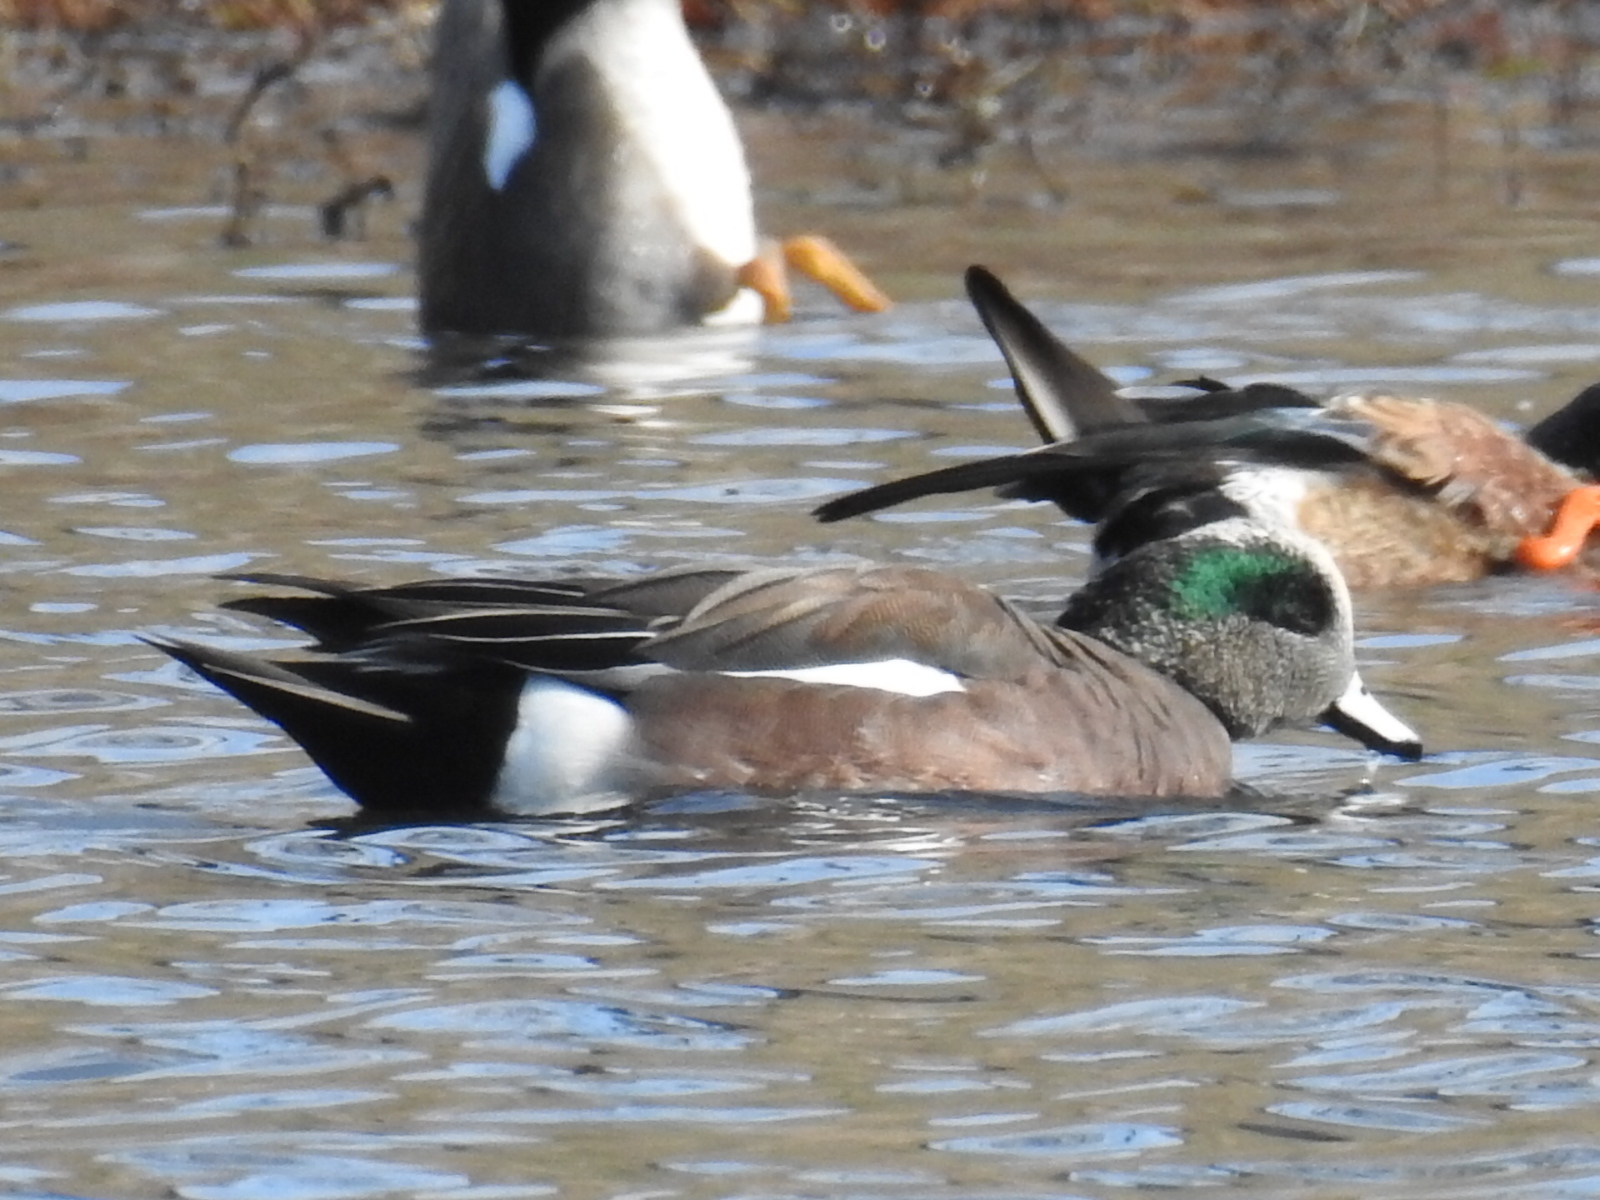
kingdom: Animalia
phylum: Chordata
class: Aves
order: Anseriformes
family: Anatidae
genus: Mareca
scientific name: Mareca americana
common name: American wigeon
